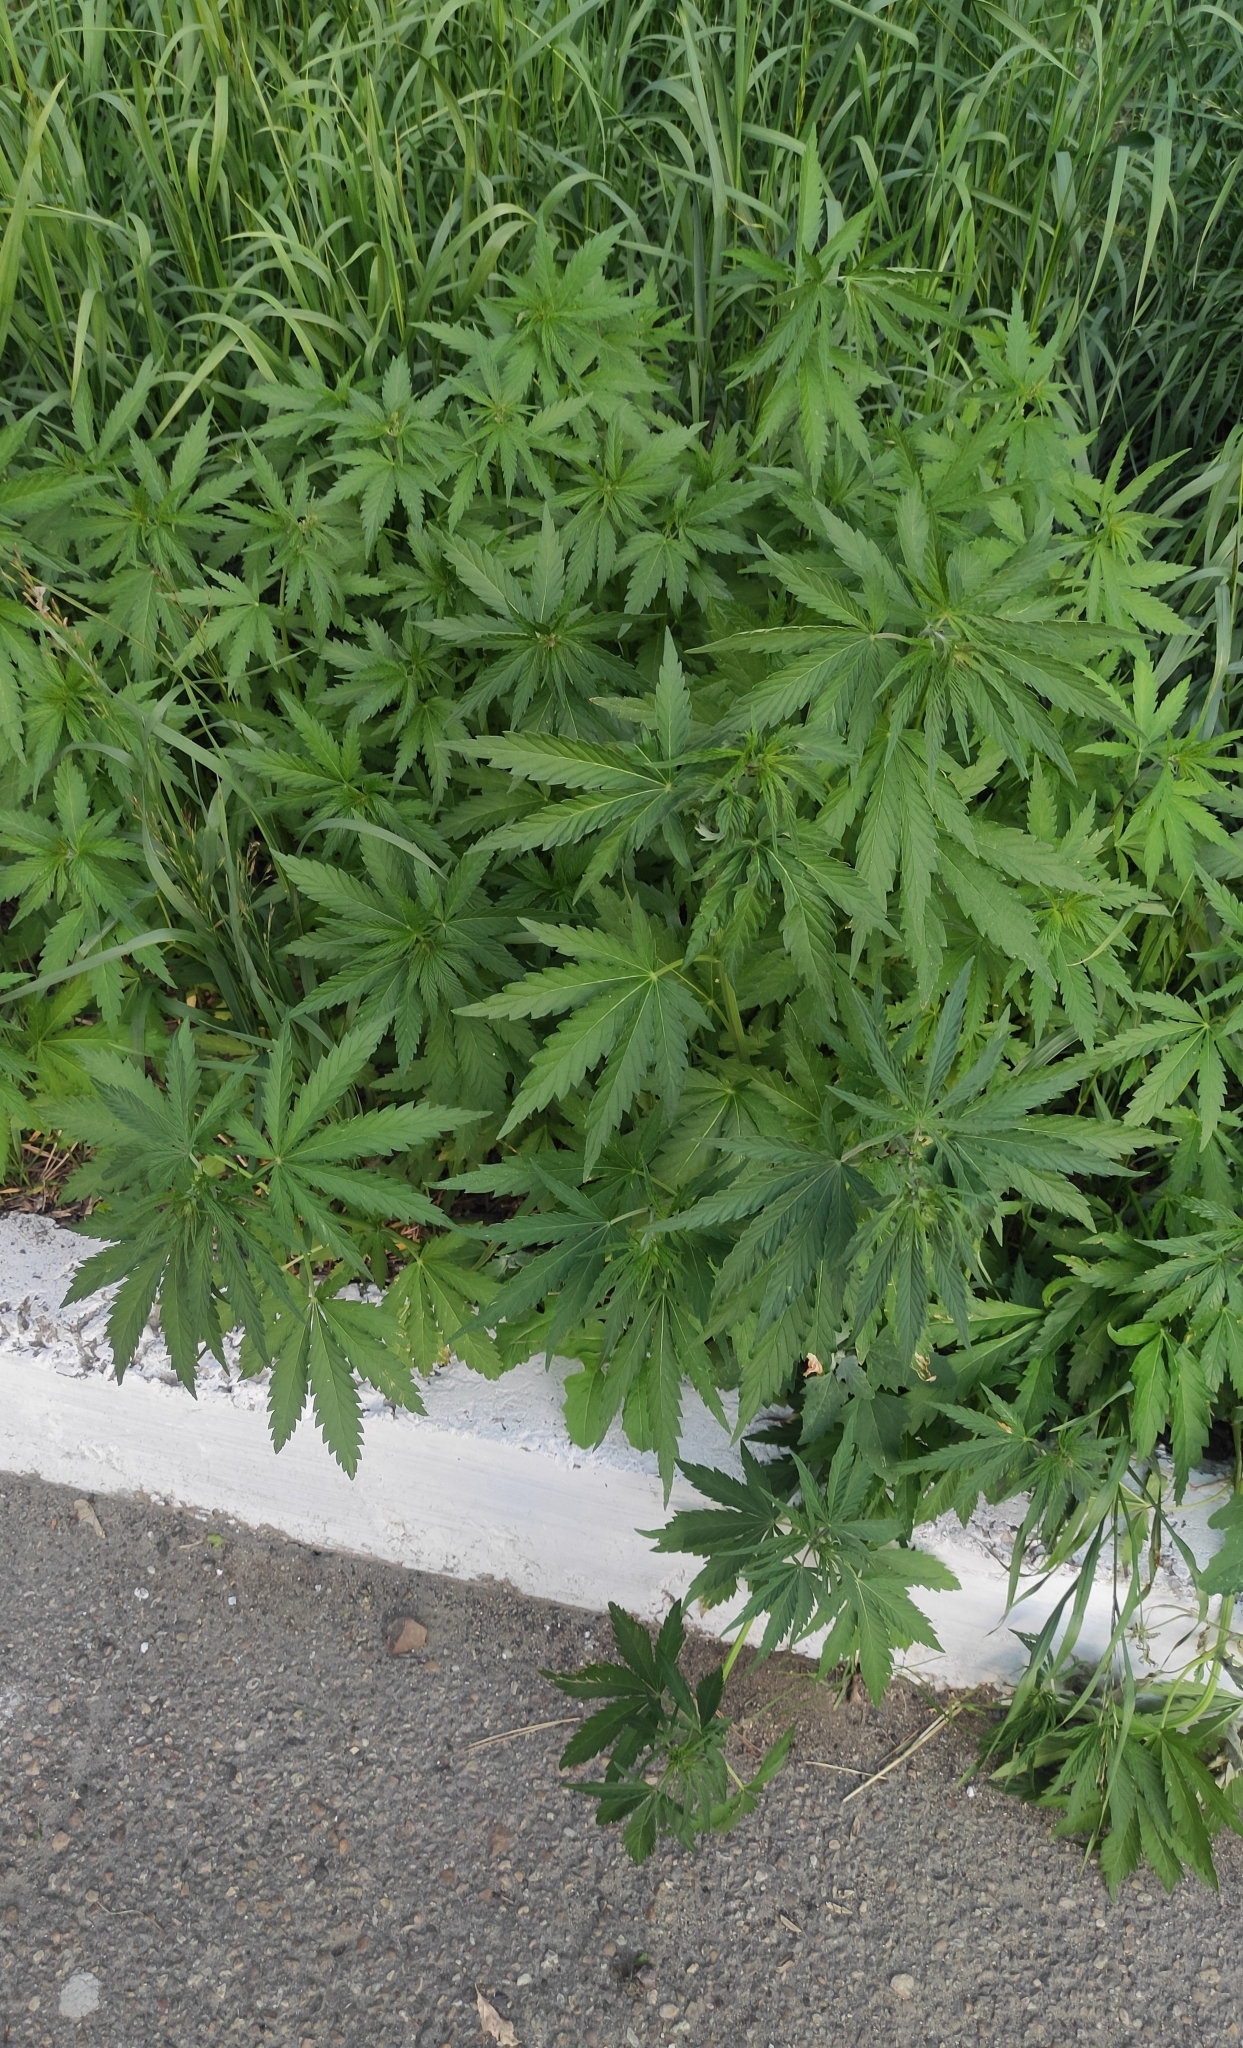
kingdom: Plantae
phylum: Tracheophyta
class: Magnoliopsida
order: Rosales
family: Cannabaceae
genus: Cannabis
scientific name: Cannabis sativa
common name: Hemp
